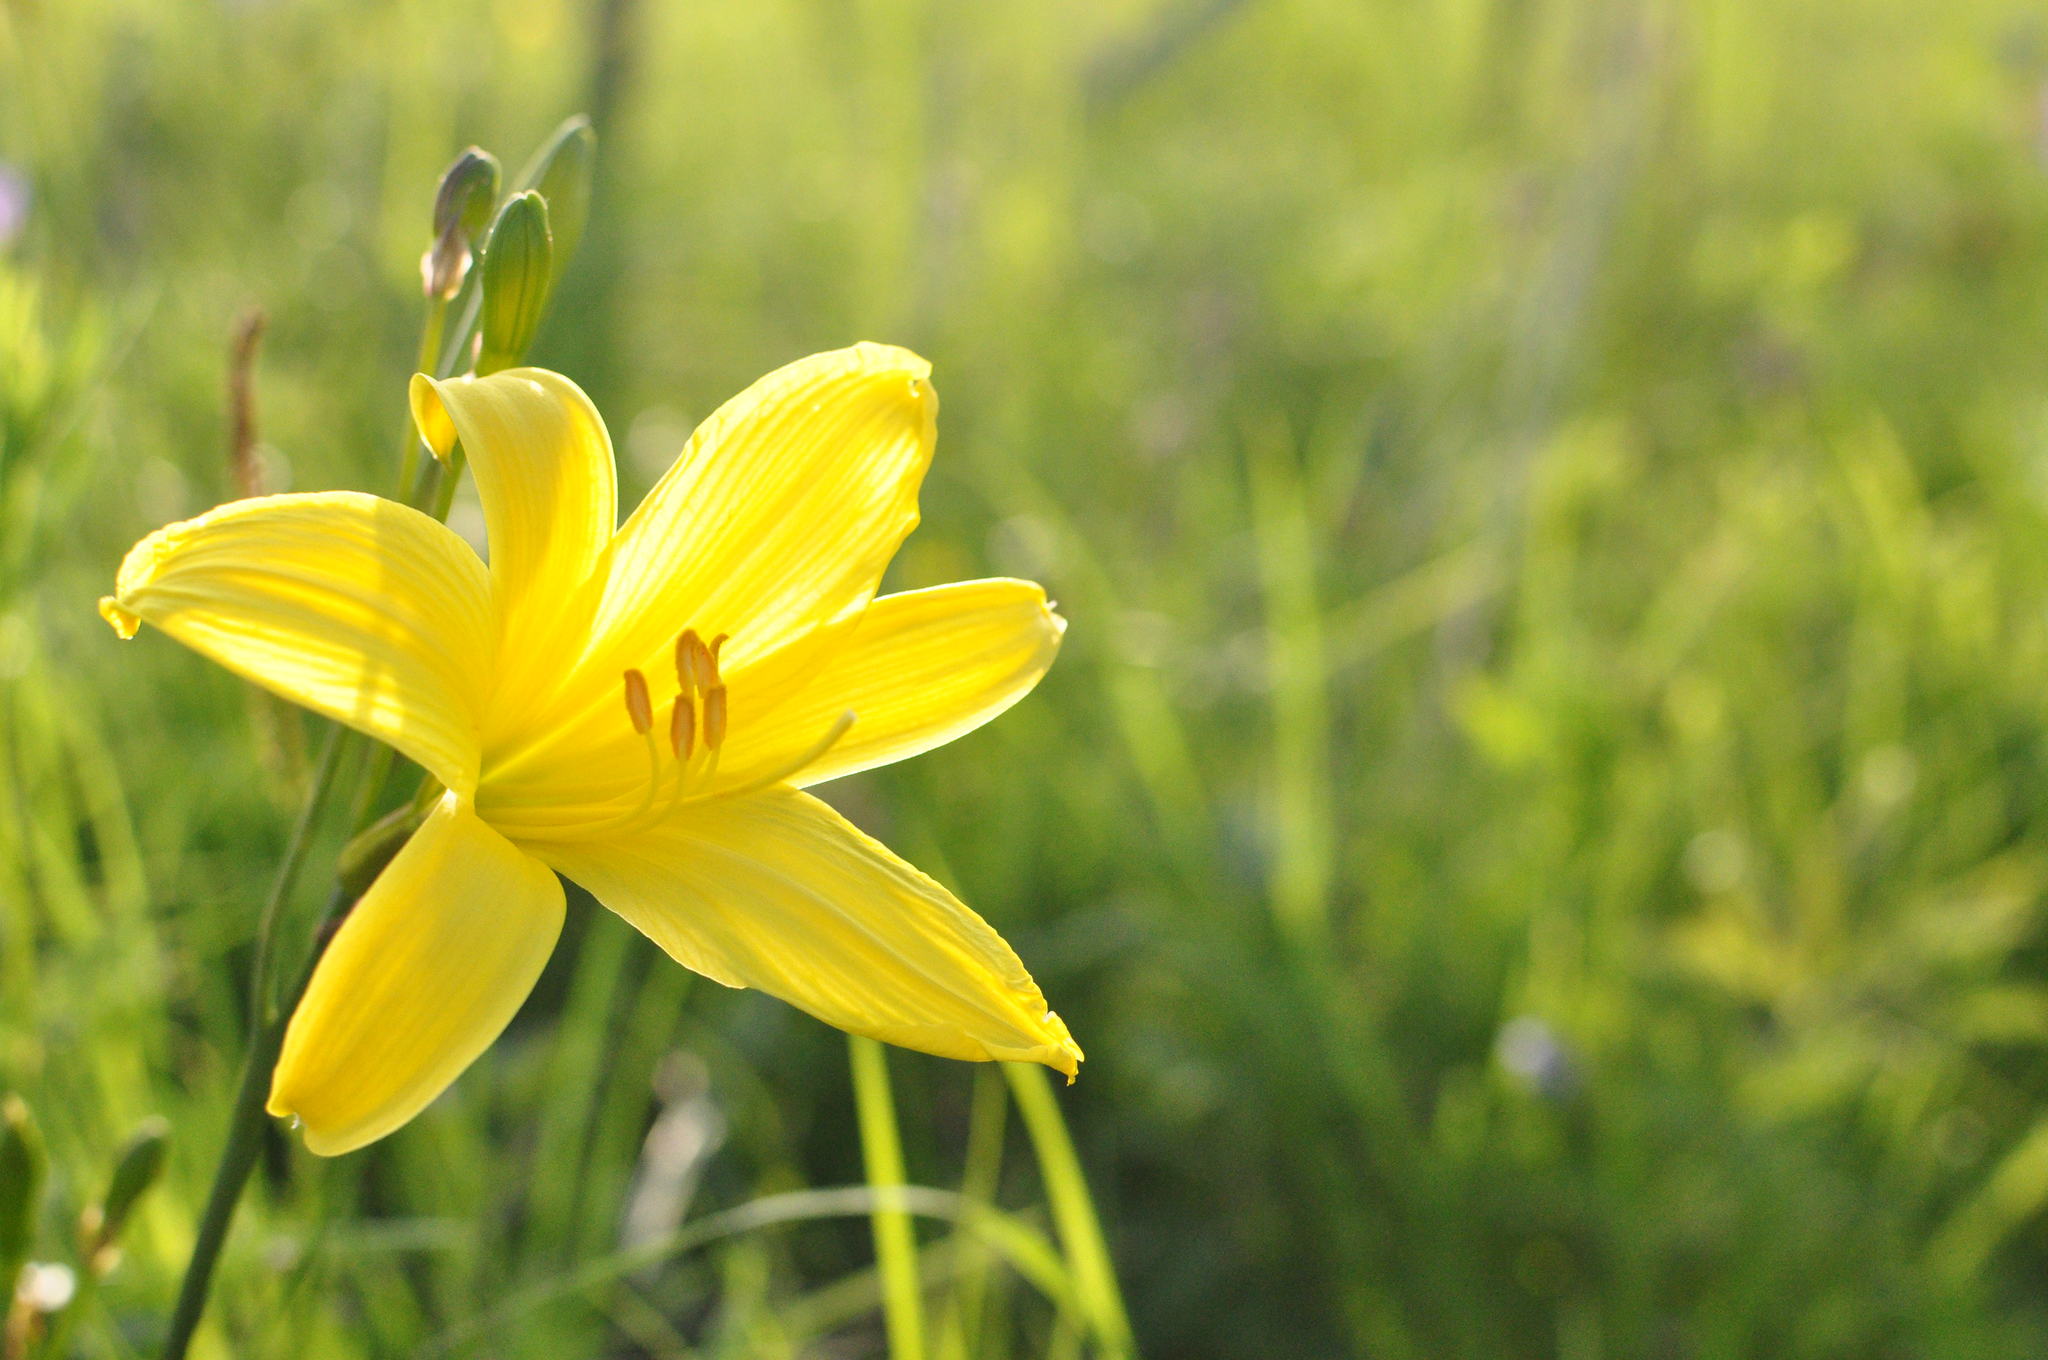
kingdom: Plantae
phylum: Tracheophyta
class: Liliopsida
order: Asparagales
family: Asphodelaceae
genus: Hemerocallis
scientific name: Hemerocallis minor
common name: Small daylily
